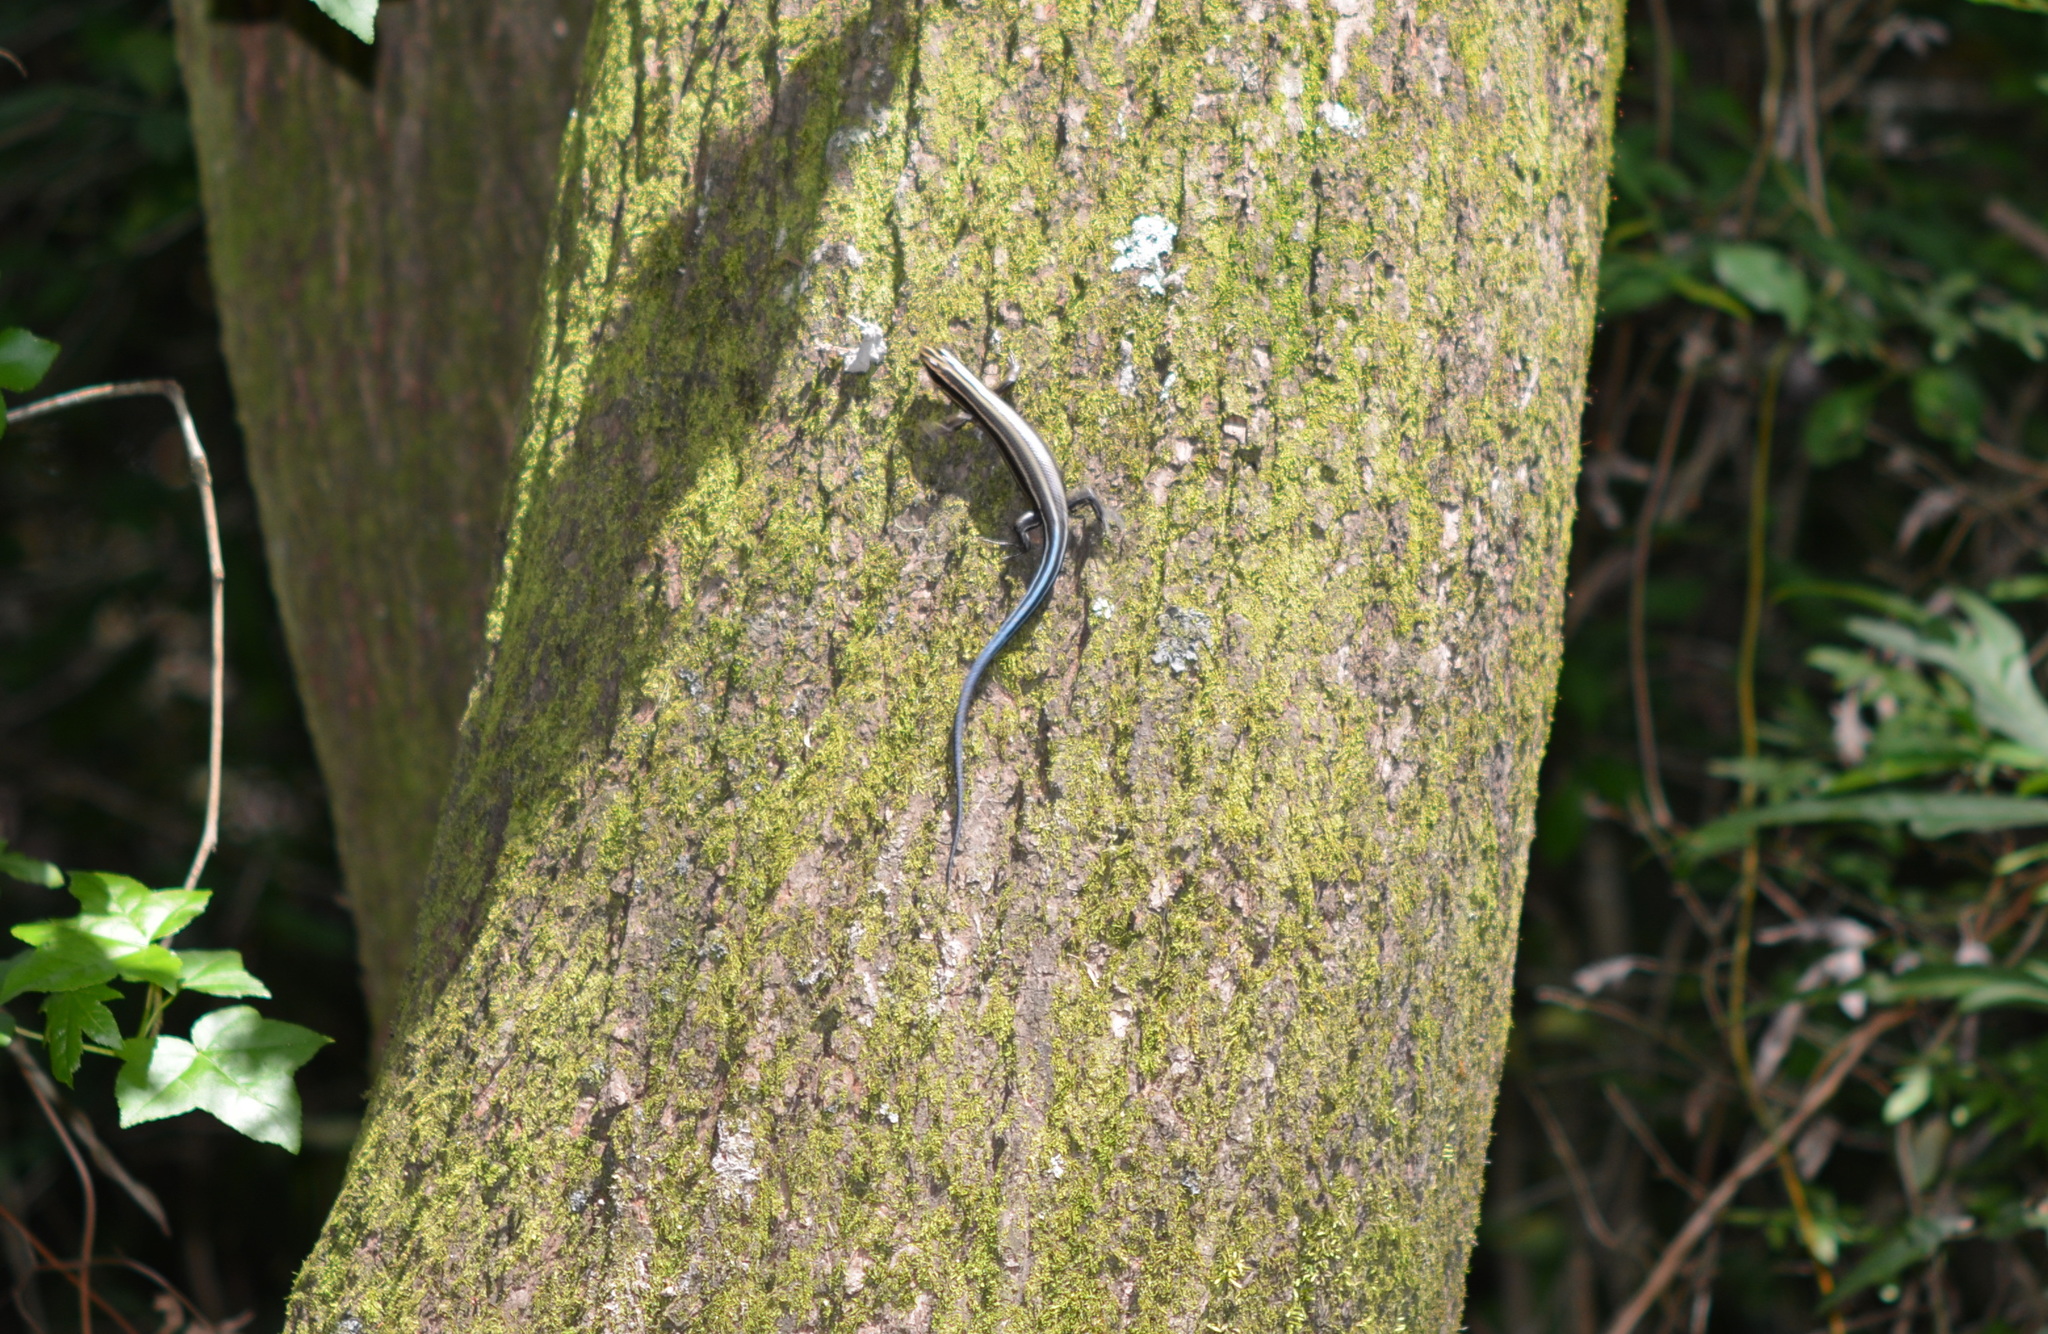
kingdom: Animalia
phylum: Chordata
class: Squamata
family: Scincidae
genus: Plestiodon
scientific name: Plestiodon fasciatus
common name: Five-lined skink
